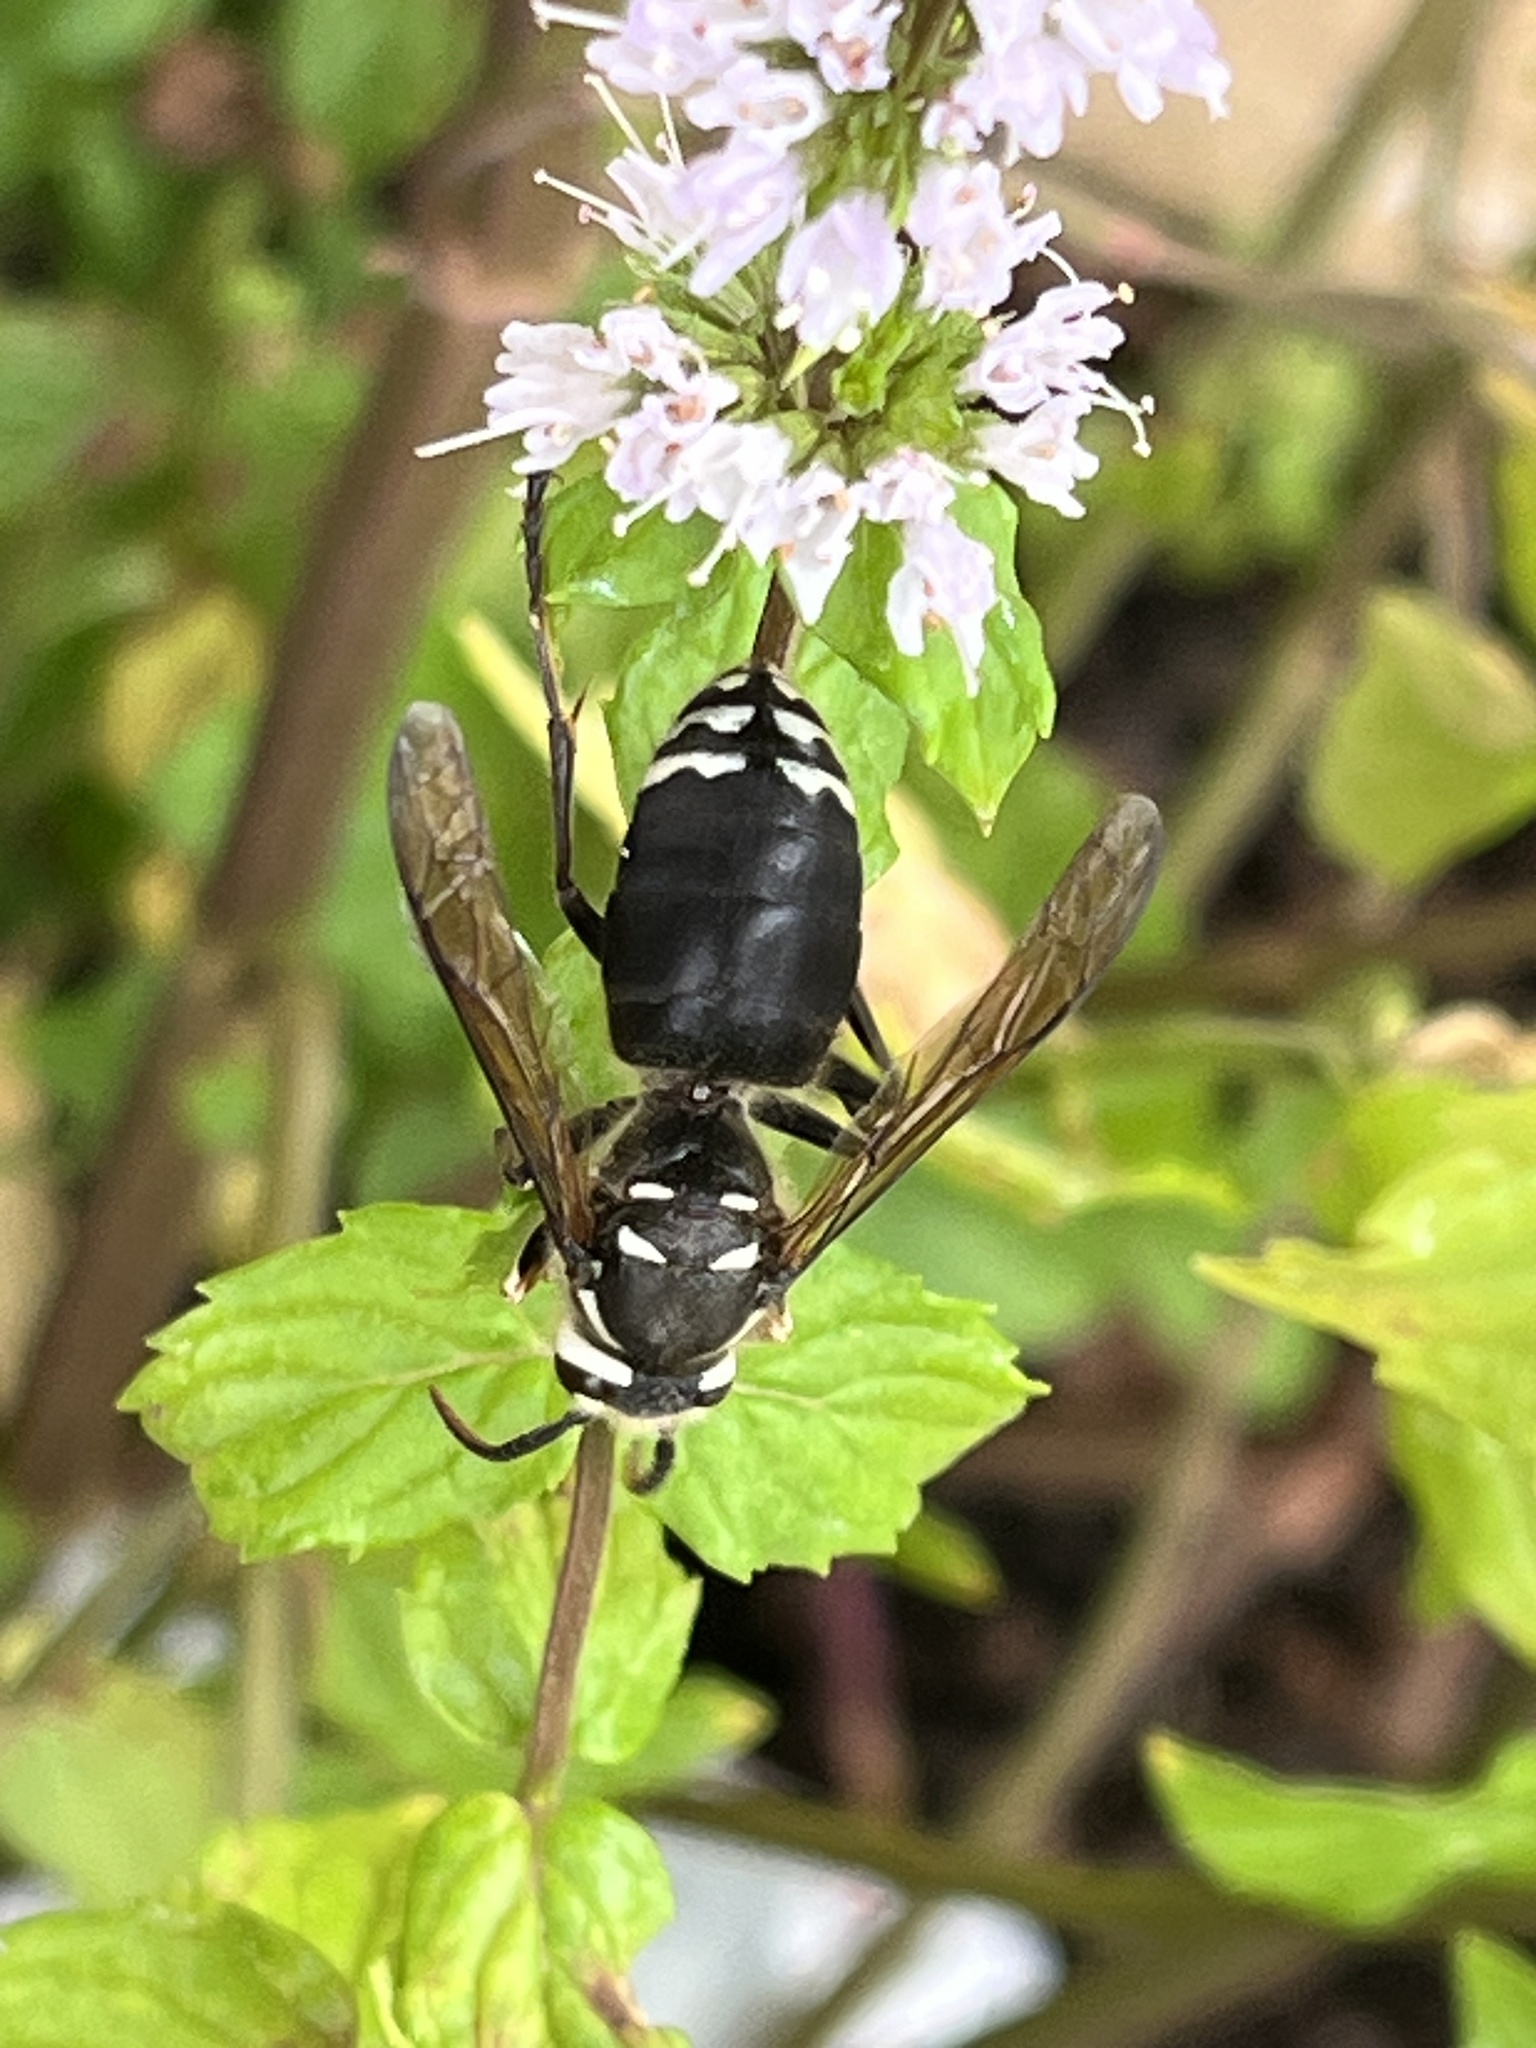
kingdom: Animalia
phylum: Arthropoda
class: Insecta
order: Hymenoptera
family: Vespidae
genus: Dolichovespula
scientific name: Dolichovespula maculata
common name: Bald-faced hornet
